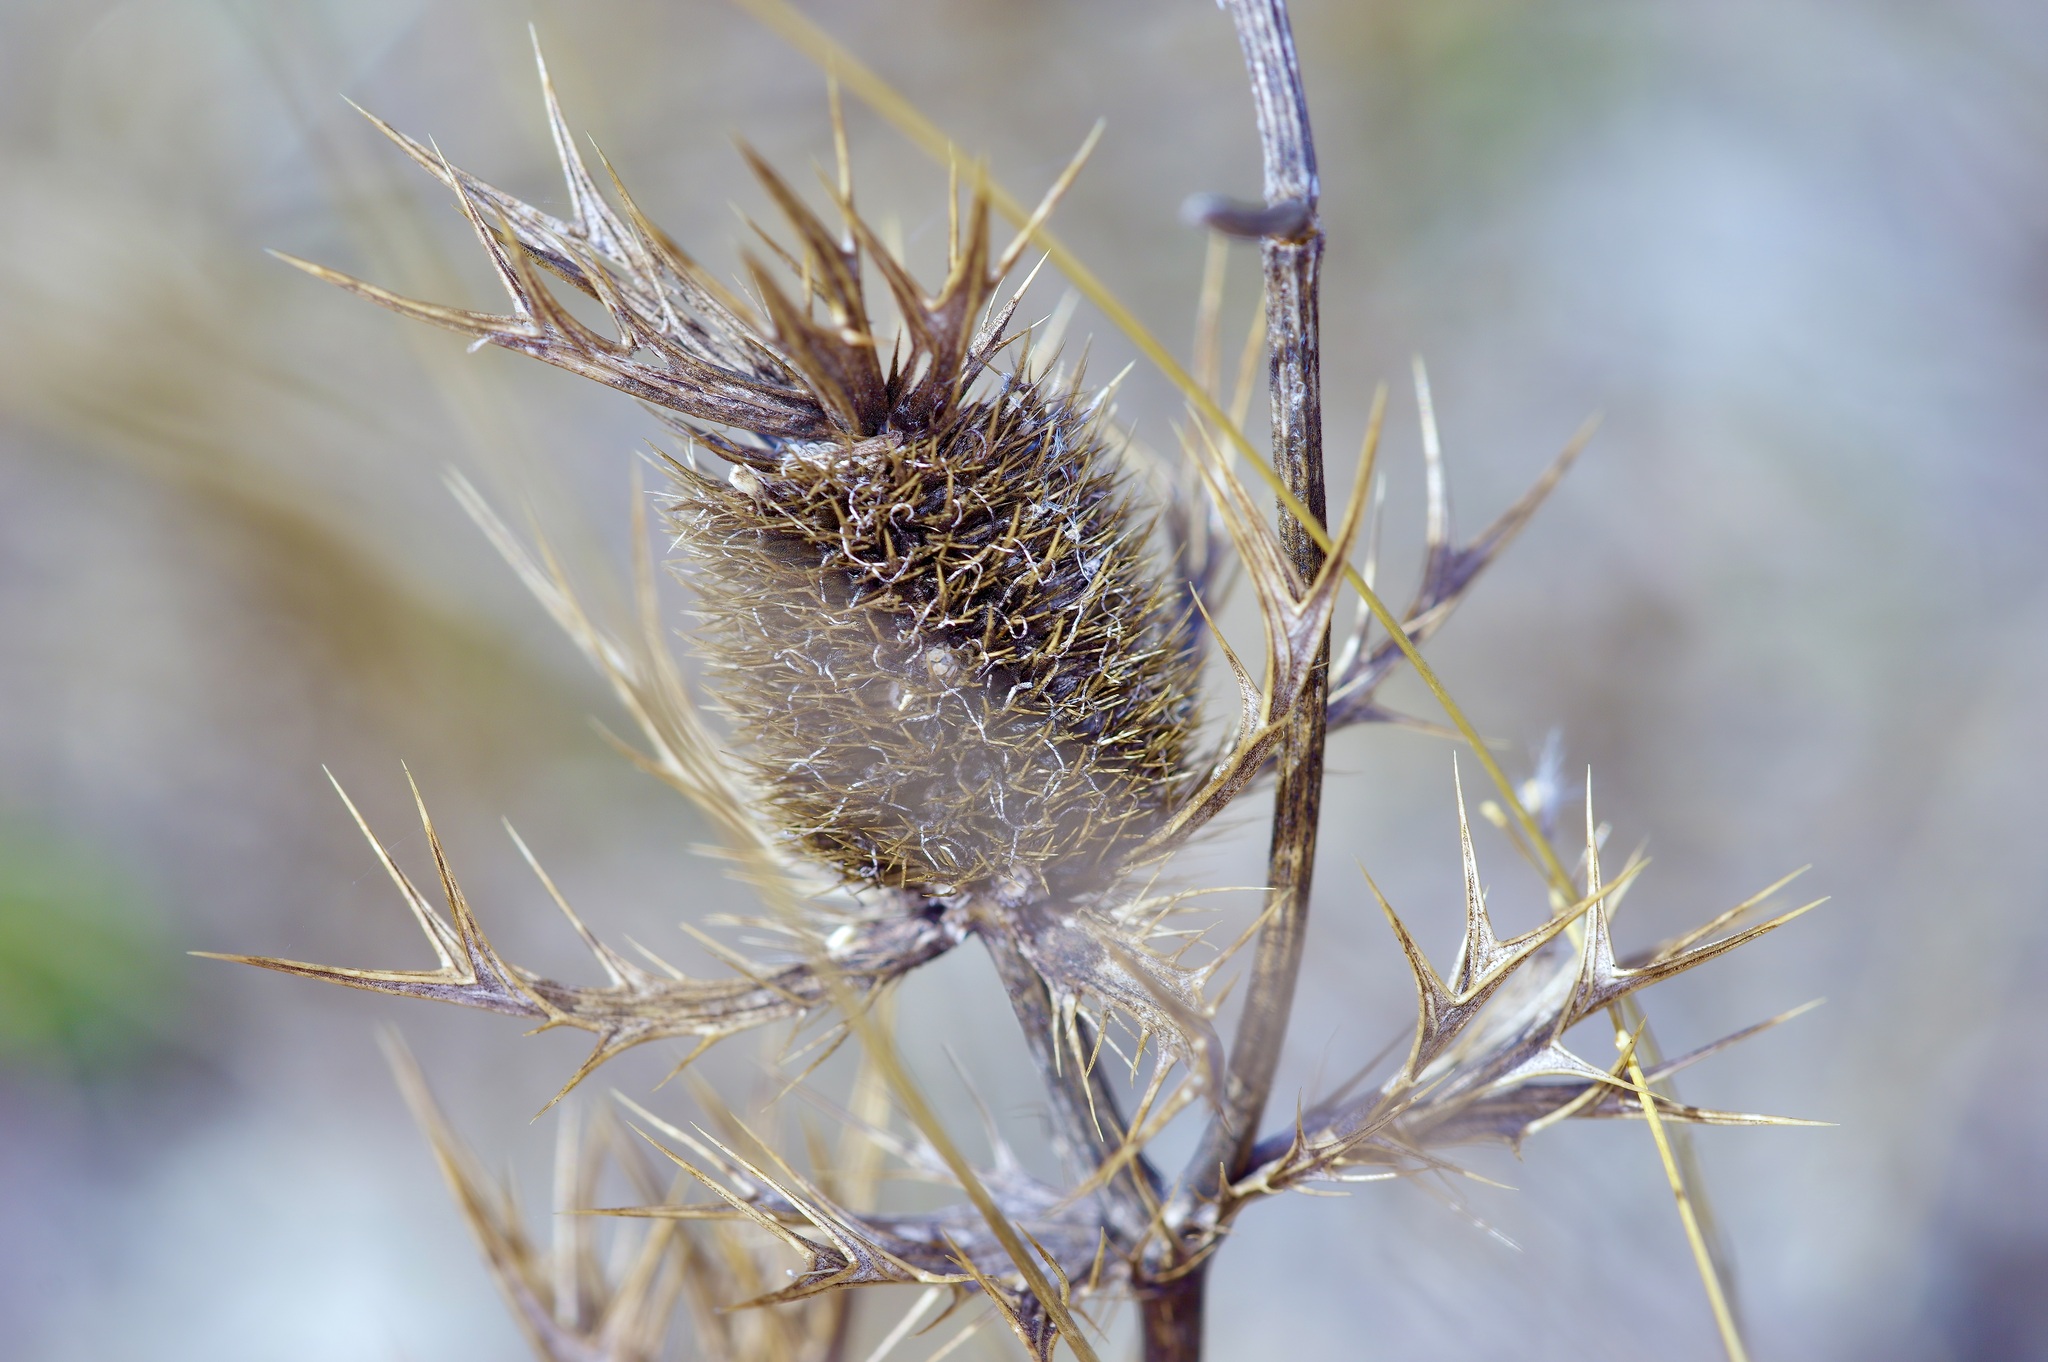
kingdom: Plantae
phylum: Tracheophyta
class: Magnoliopsida
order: Apiales
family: Apiaceae
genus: Eryngium
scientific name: Eryngium leavenworthii
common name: Leavenworth's eryngo
